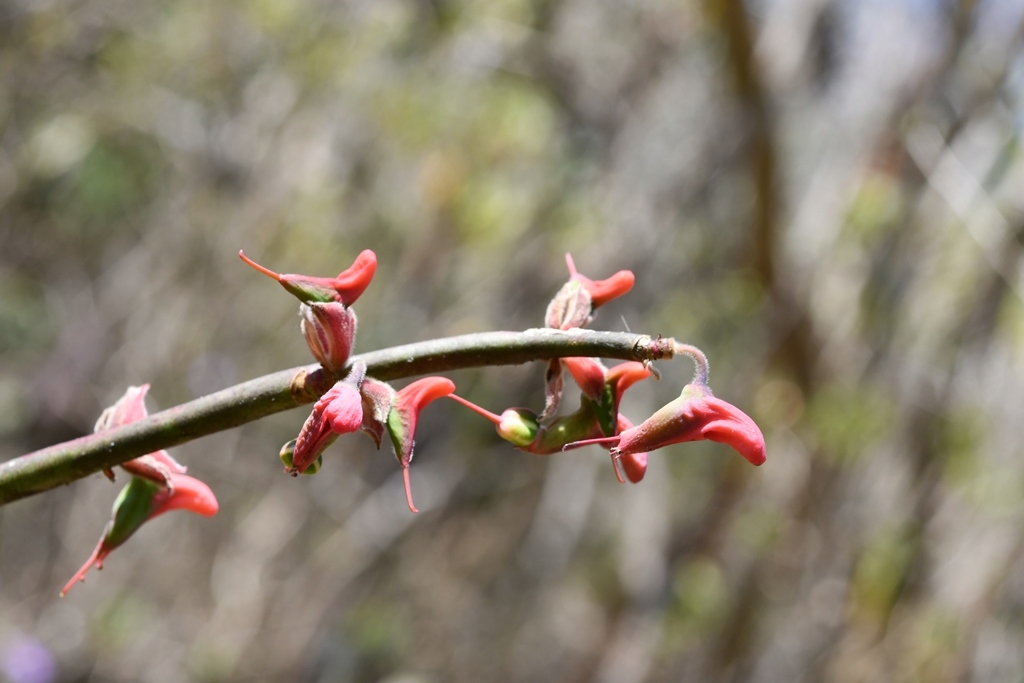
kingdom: Plantae
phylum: Tracheophyta
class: Magnoliopsida
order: Malpighiales
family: Euphorbiaceae
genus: Euphorbia
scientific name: Euphorbia calcarata
